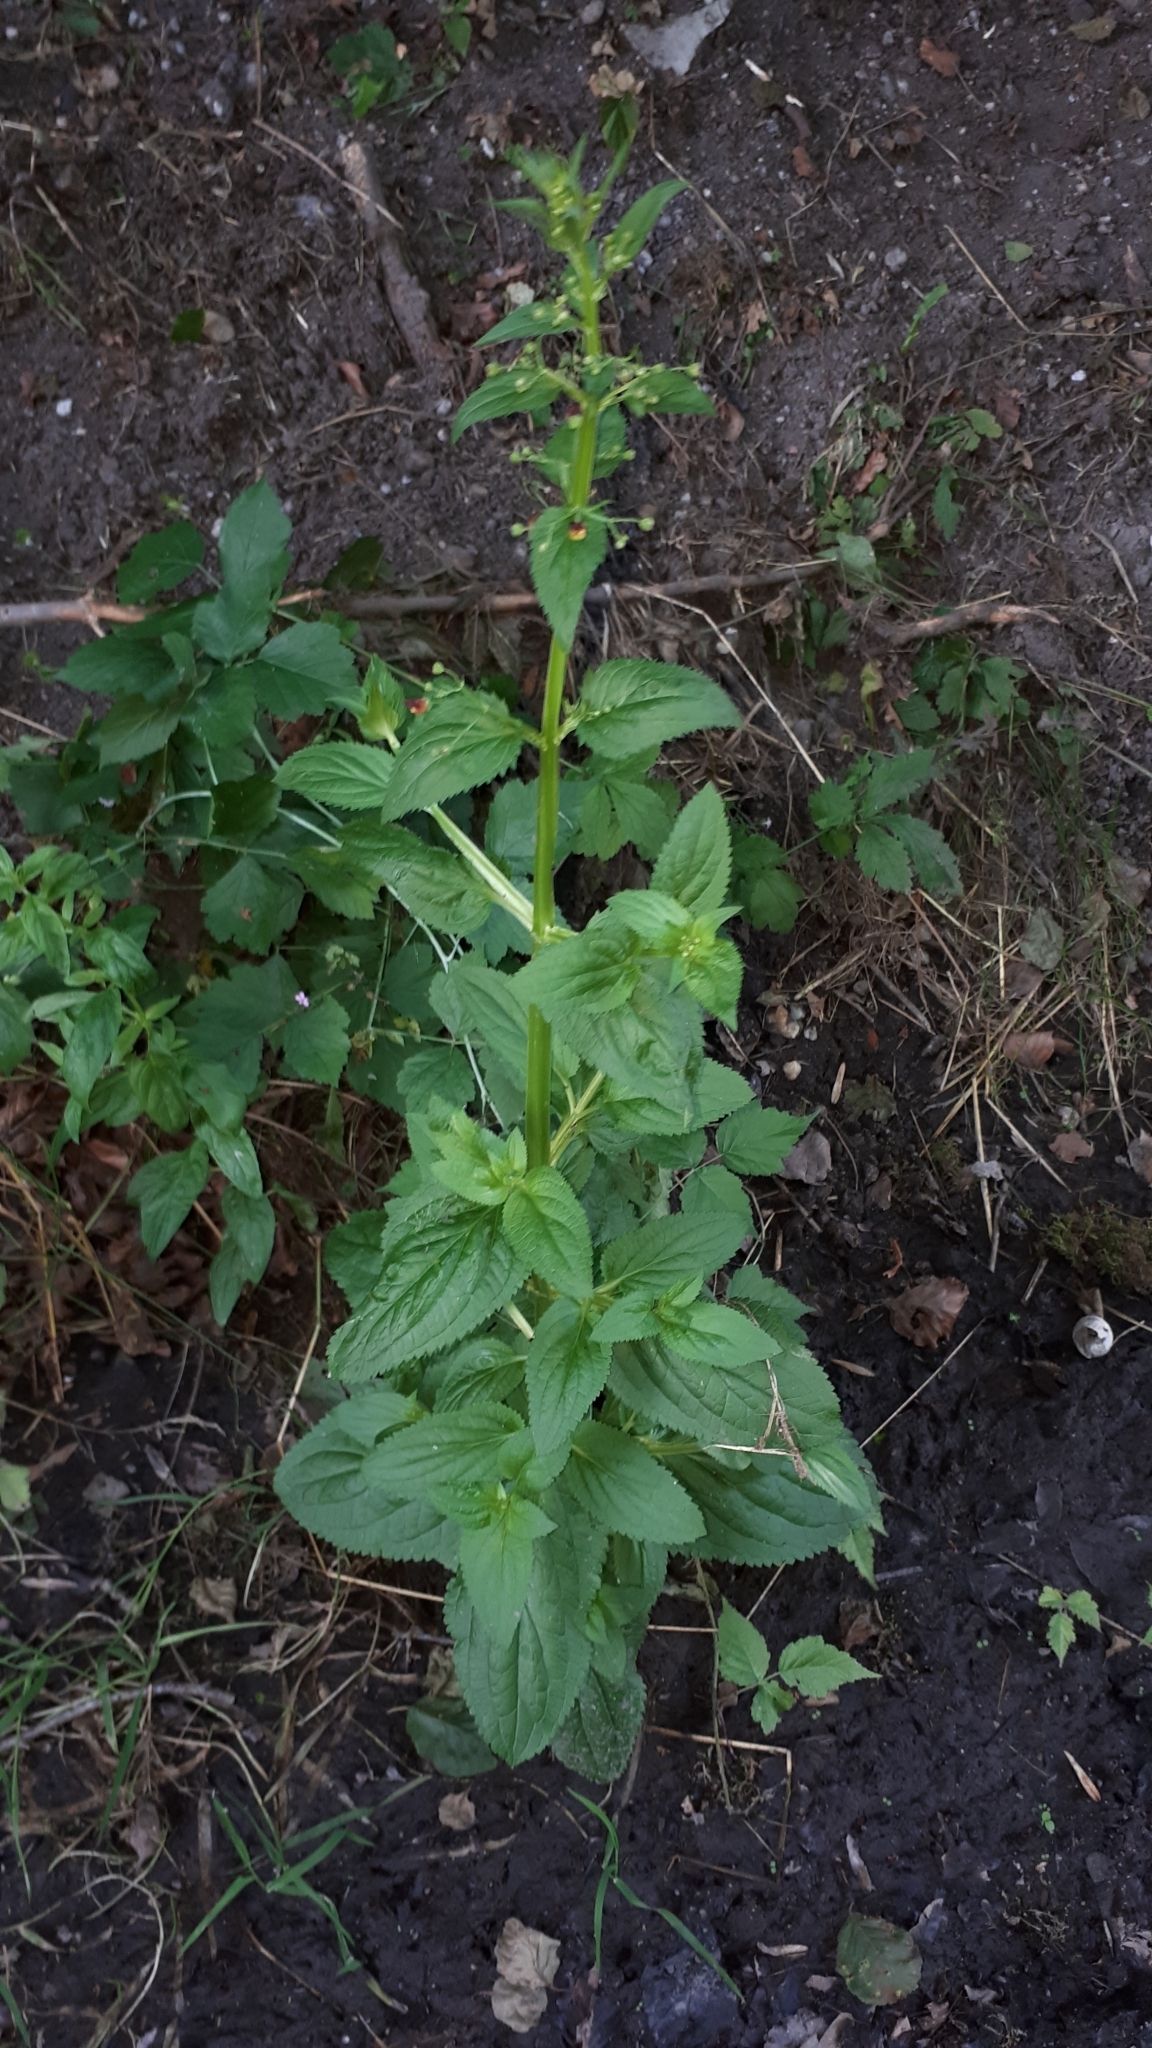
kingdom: Plantae
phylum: Tracheophyta
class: Magnoliopsida
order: Lamiales
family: Scrophulariaceae
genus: Scrophularia
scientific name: Scrophularia umbrosa
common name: Green figwort
